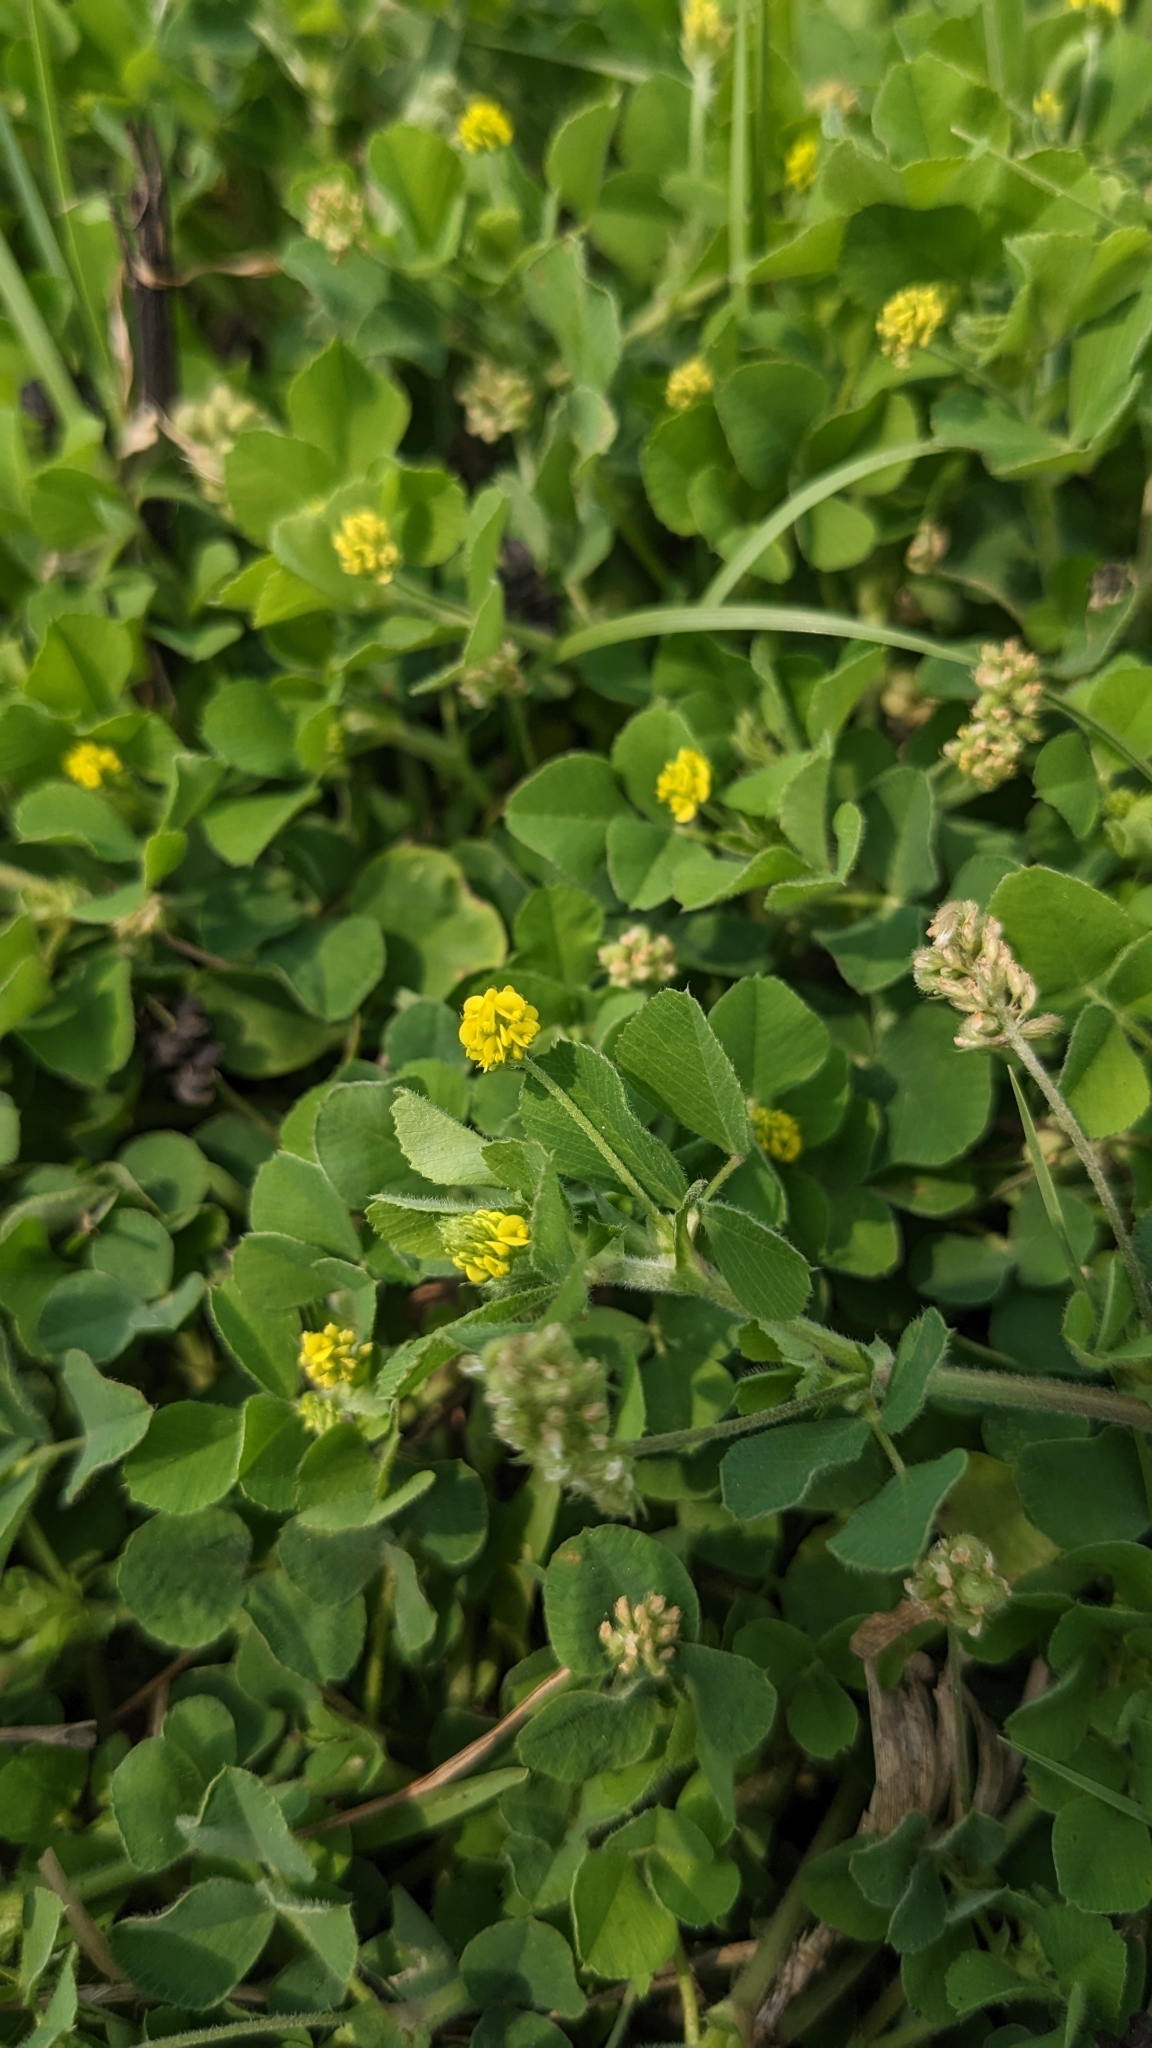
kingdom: Plantae
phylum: Tracheophyta
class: Magnoliopsida
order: Fabales
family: Fabaceae
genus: Medicago
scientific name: Medicago lupulina
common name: Black medick
